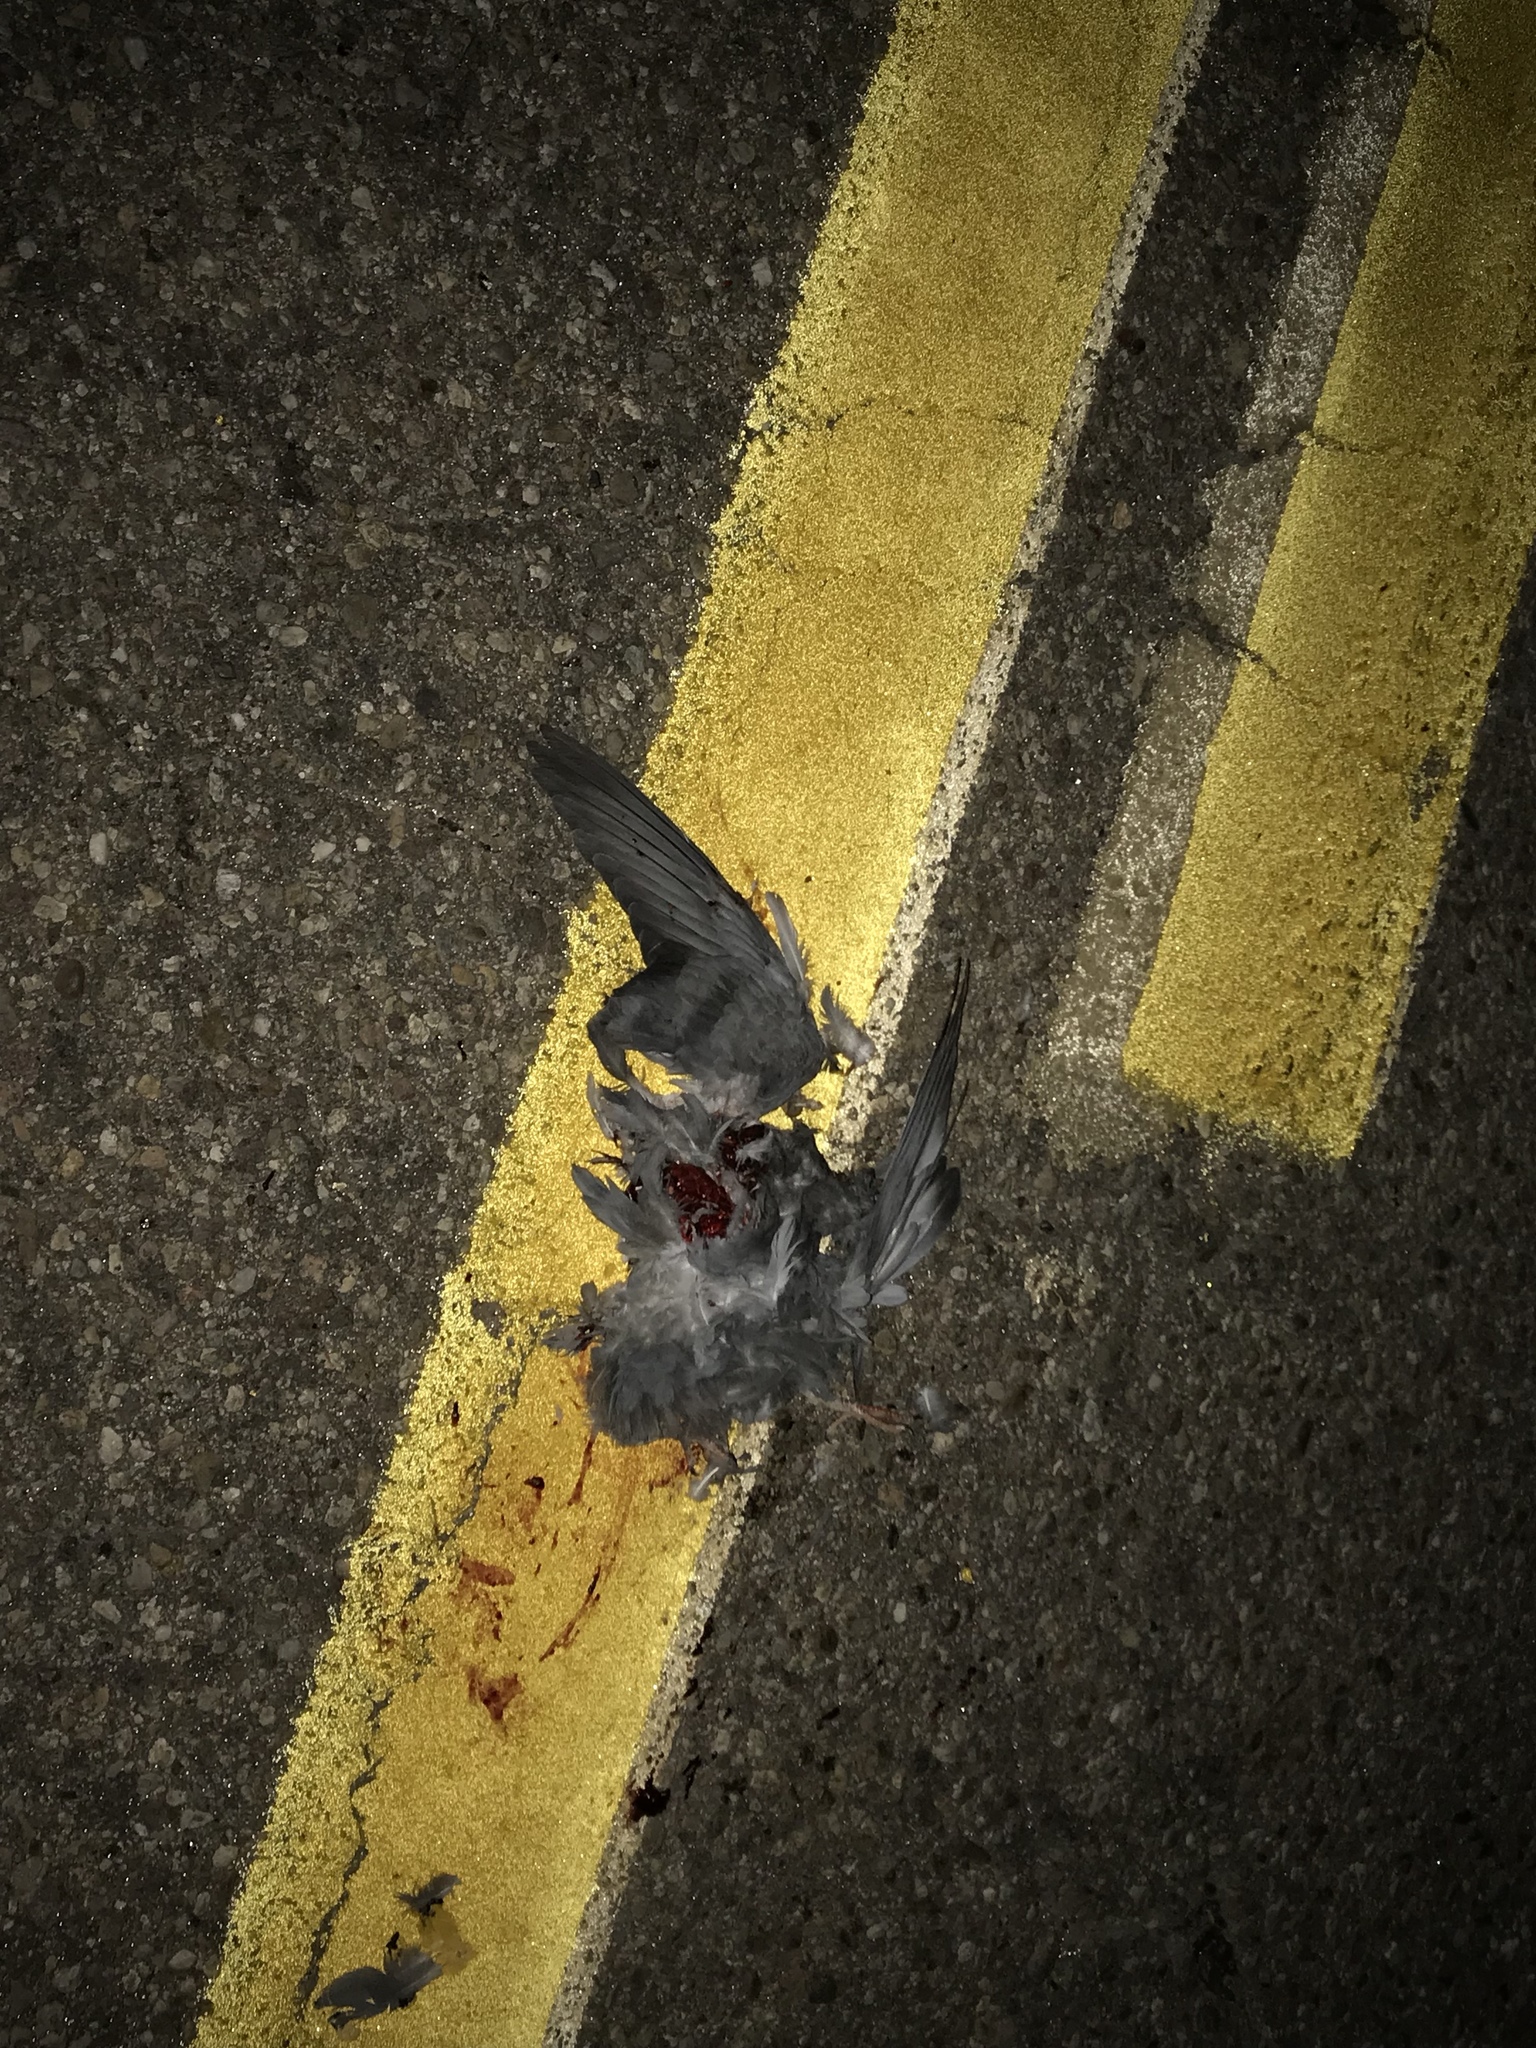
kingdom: Animalia
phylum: Chordata
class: Aves
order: Columbiformes
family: Columbidae
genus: Columba
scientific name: Columba livia
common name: Rock pigeon
